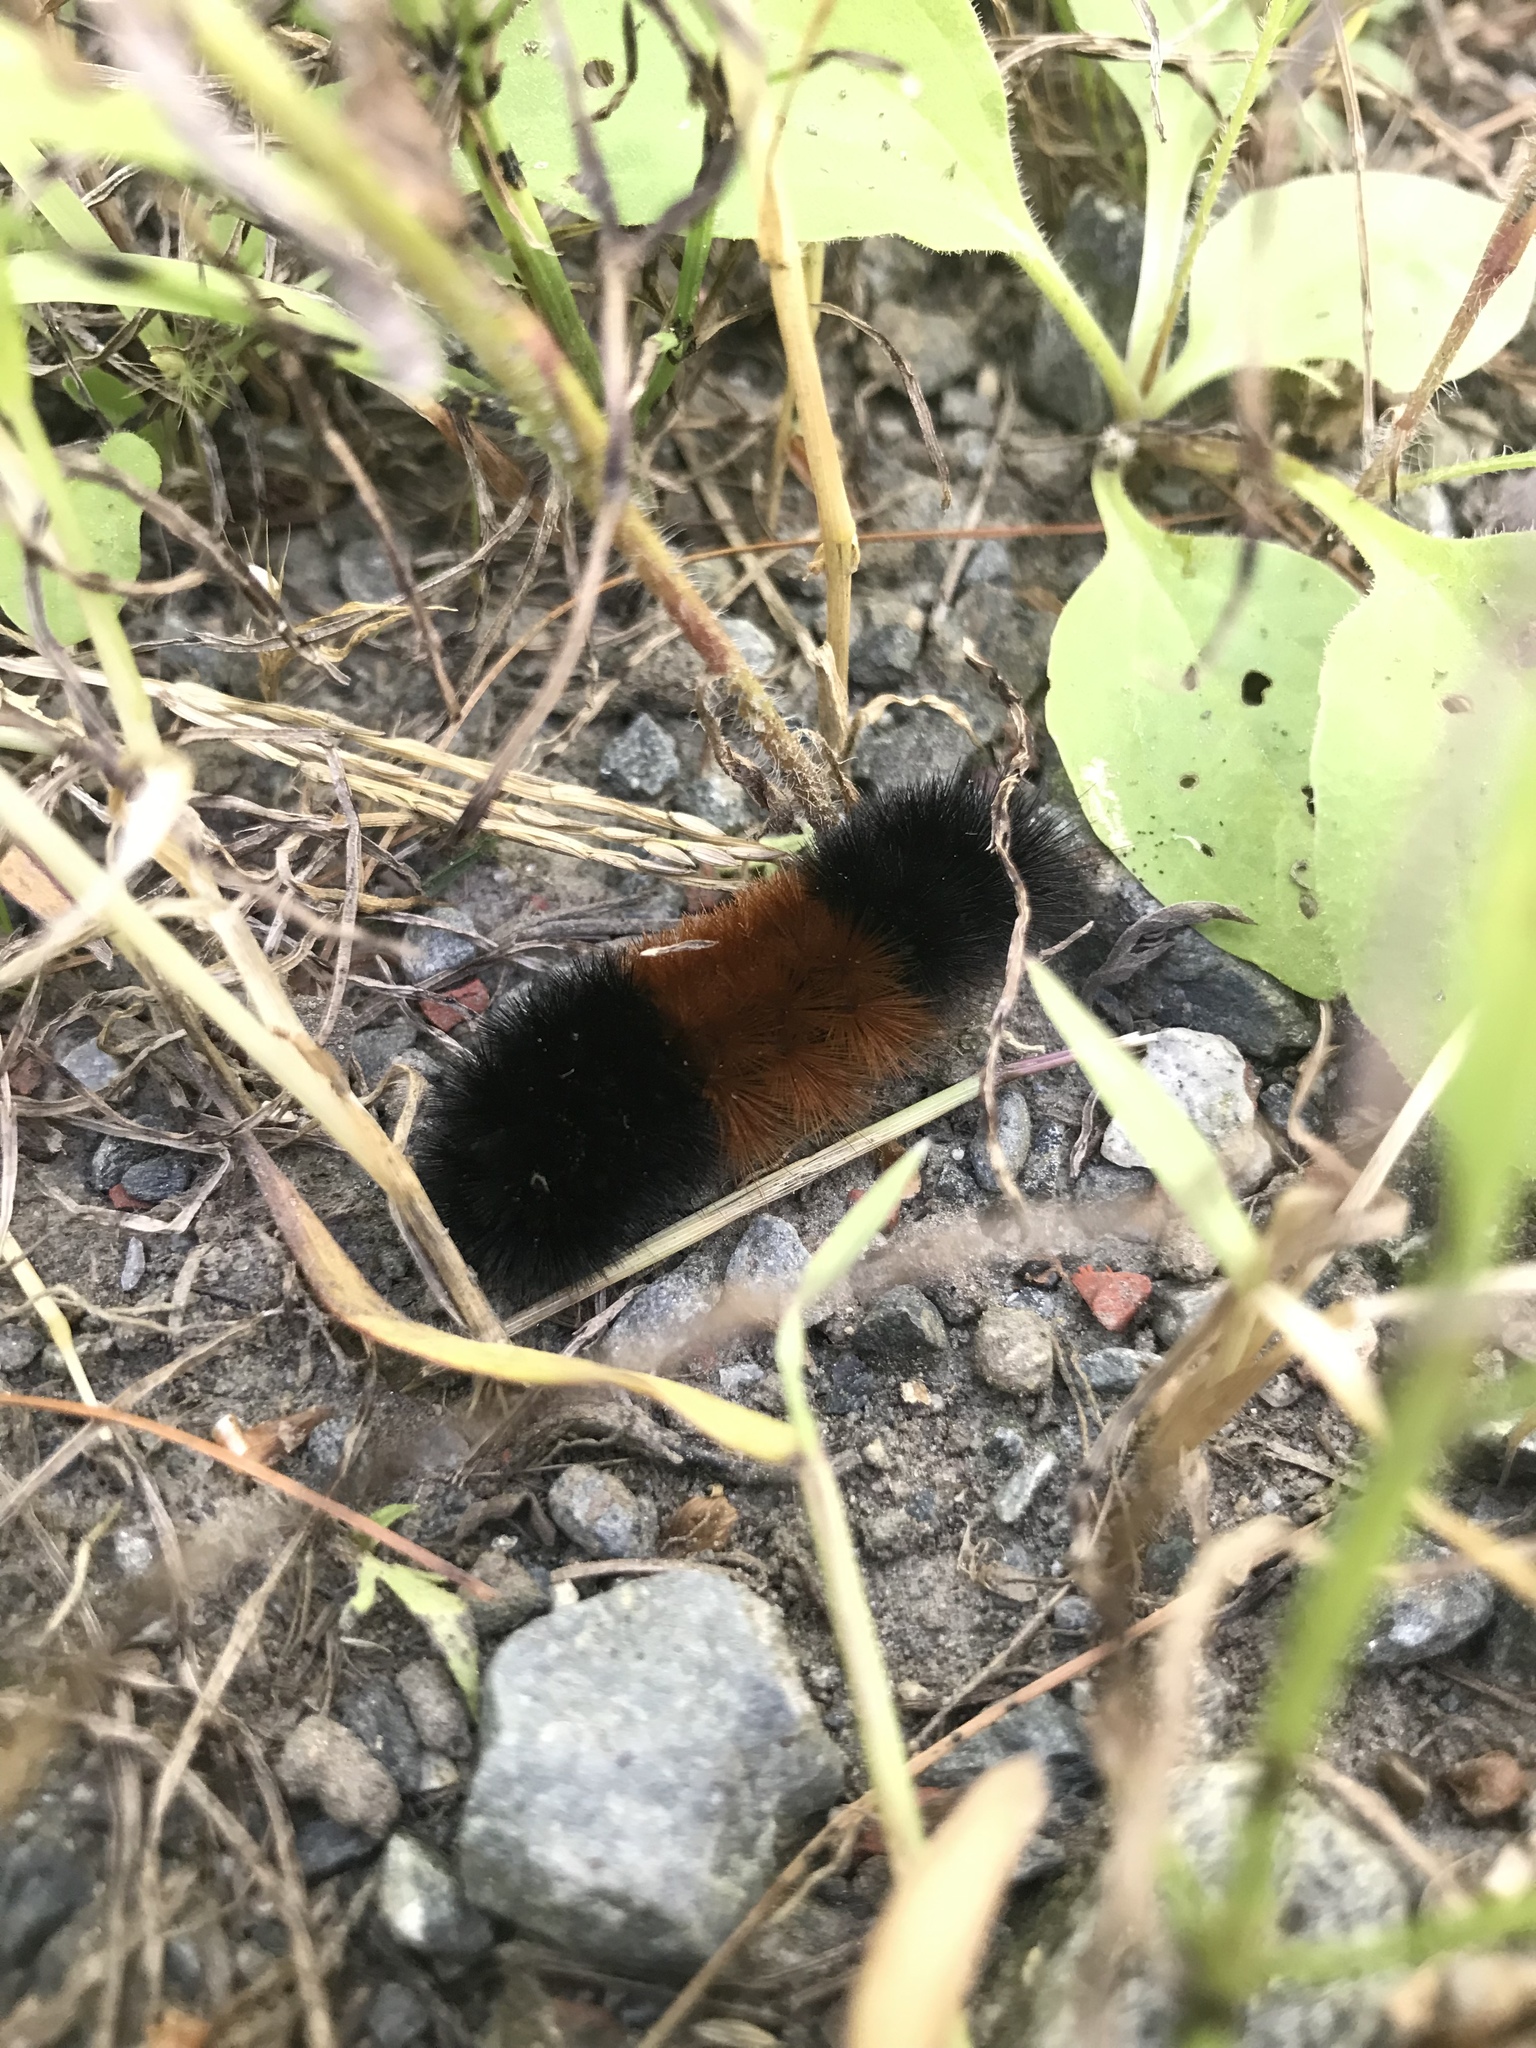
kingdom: Animalia
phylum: Arthropoda
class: Insecta
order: Lepidoptera
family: Erebidae
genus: Pyrrharctia
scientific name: Pyrrharctia isabella
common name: Isabella tiger moth
